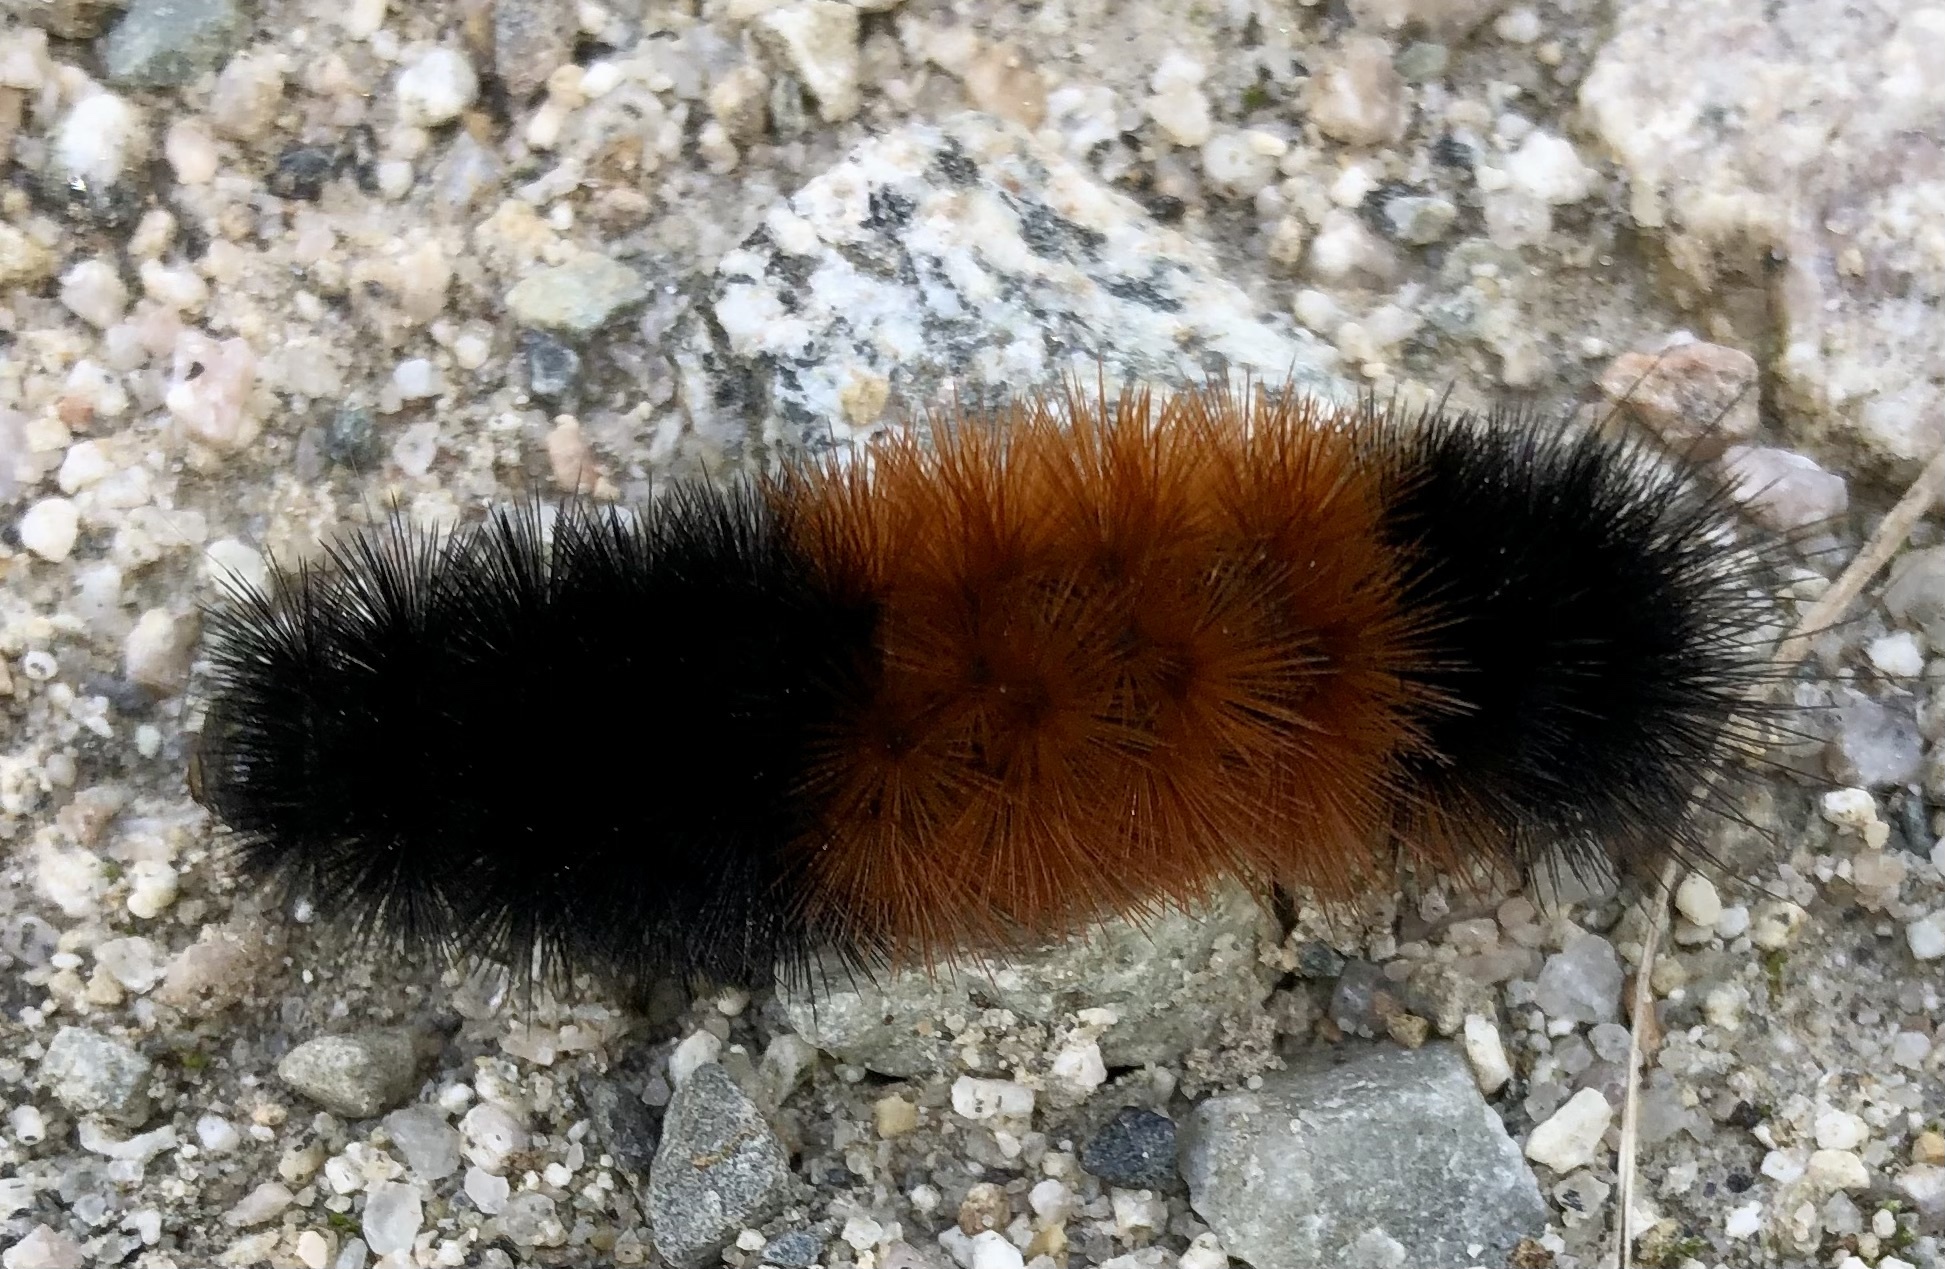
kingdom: Animalia
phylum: Arthropoda
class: Insecta
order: Lepidoptera
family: Erebidae
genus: Pyrrharctia
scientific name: Pyrrharctia isabella
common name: Isabella tiger moth
